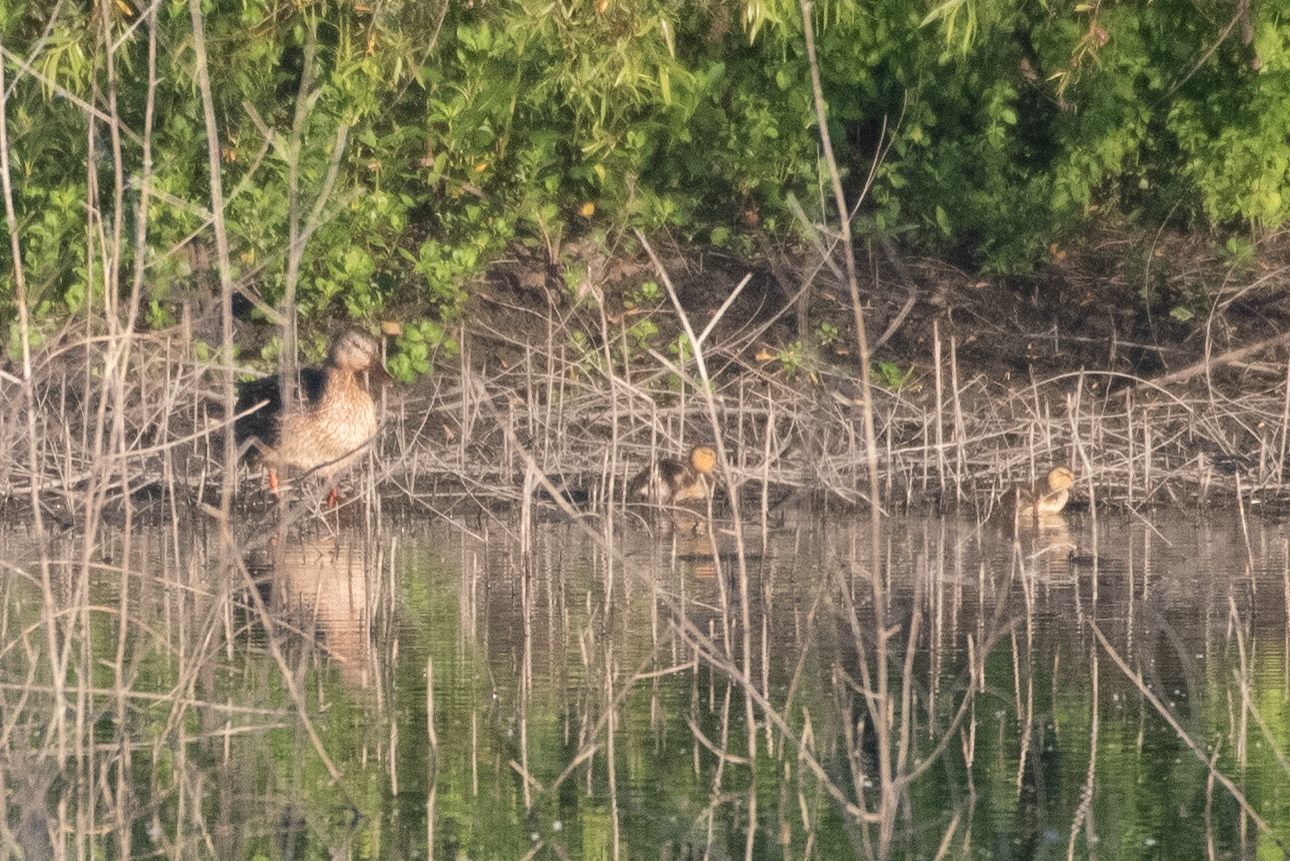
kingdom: Animalia
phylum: Chordata
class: Aves
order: Anseriformes
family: Anatidae
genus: Anas
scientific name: Anas platyrhynchos
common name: Mallard
